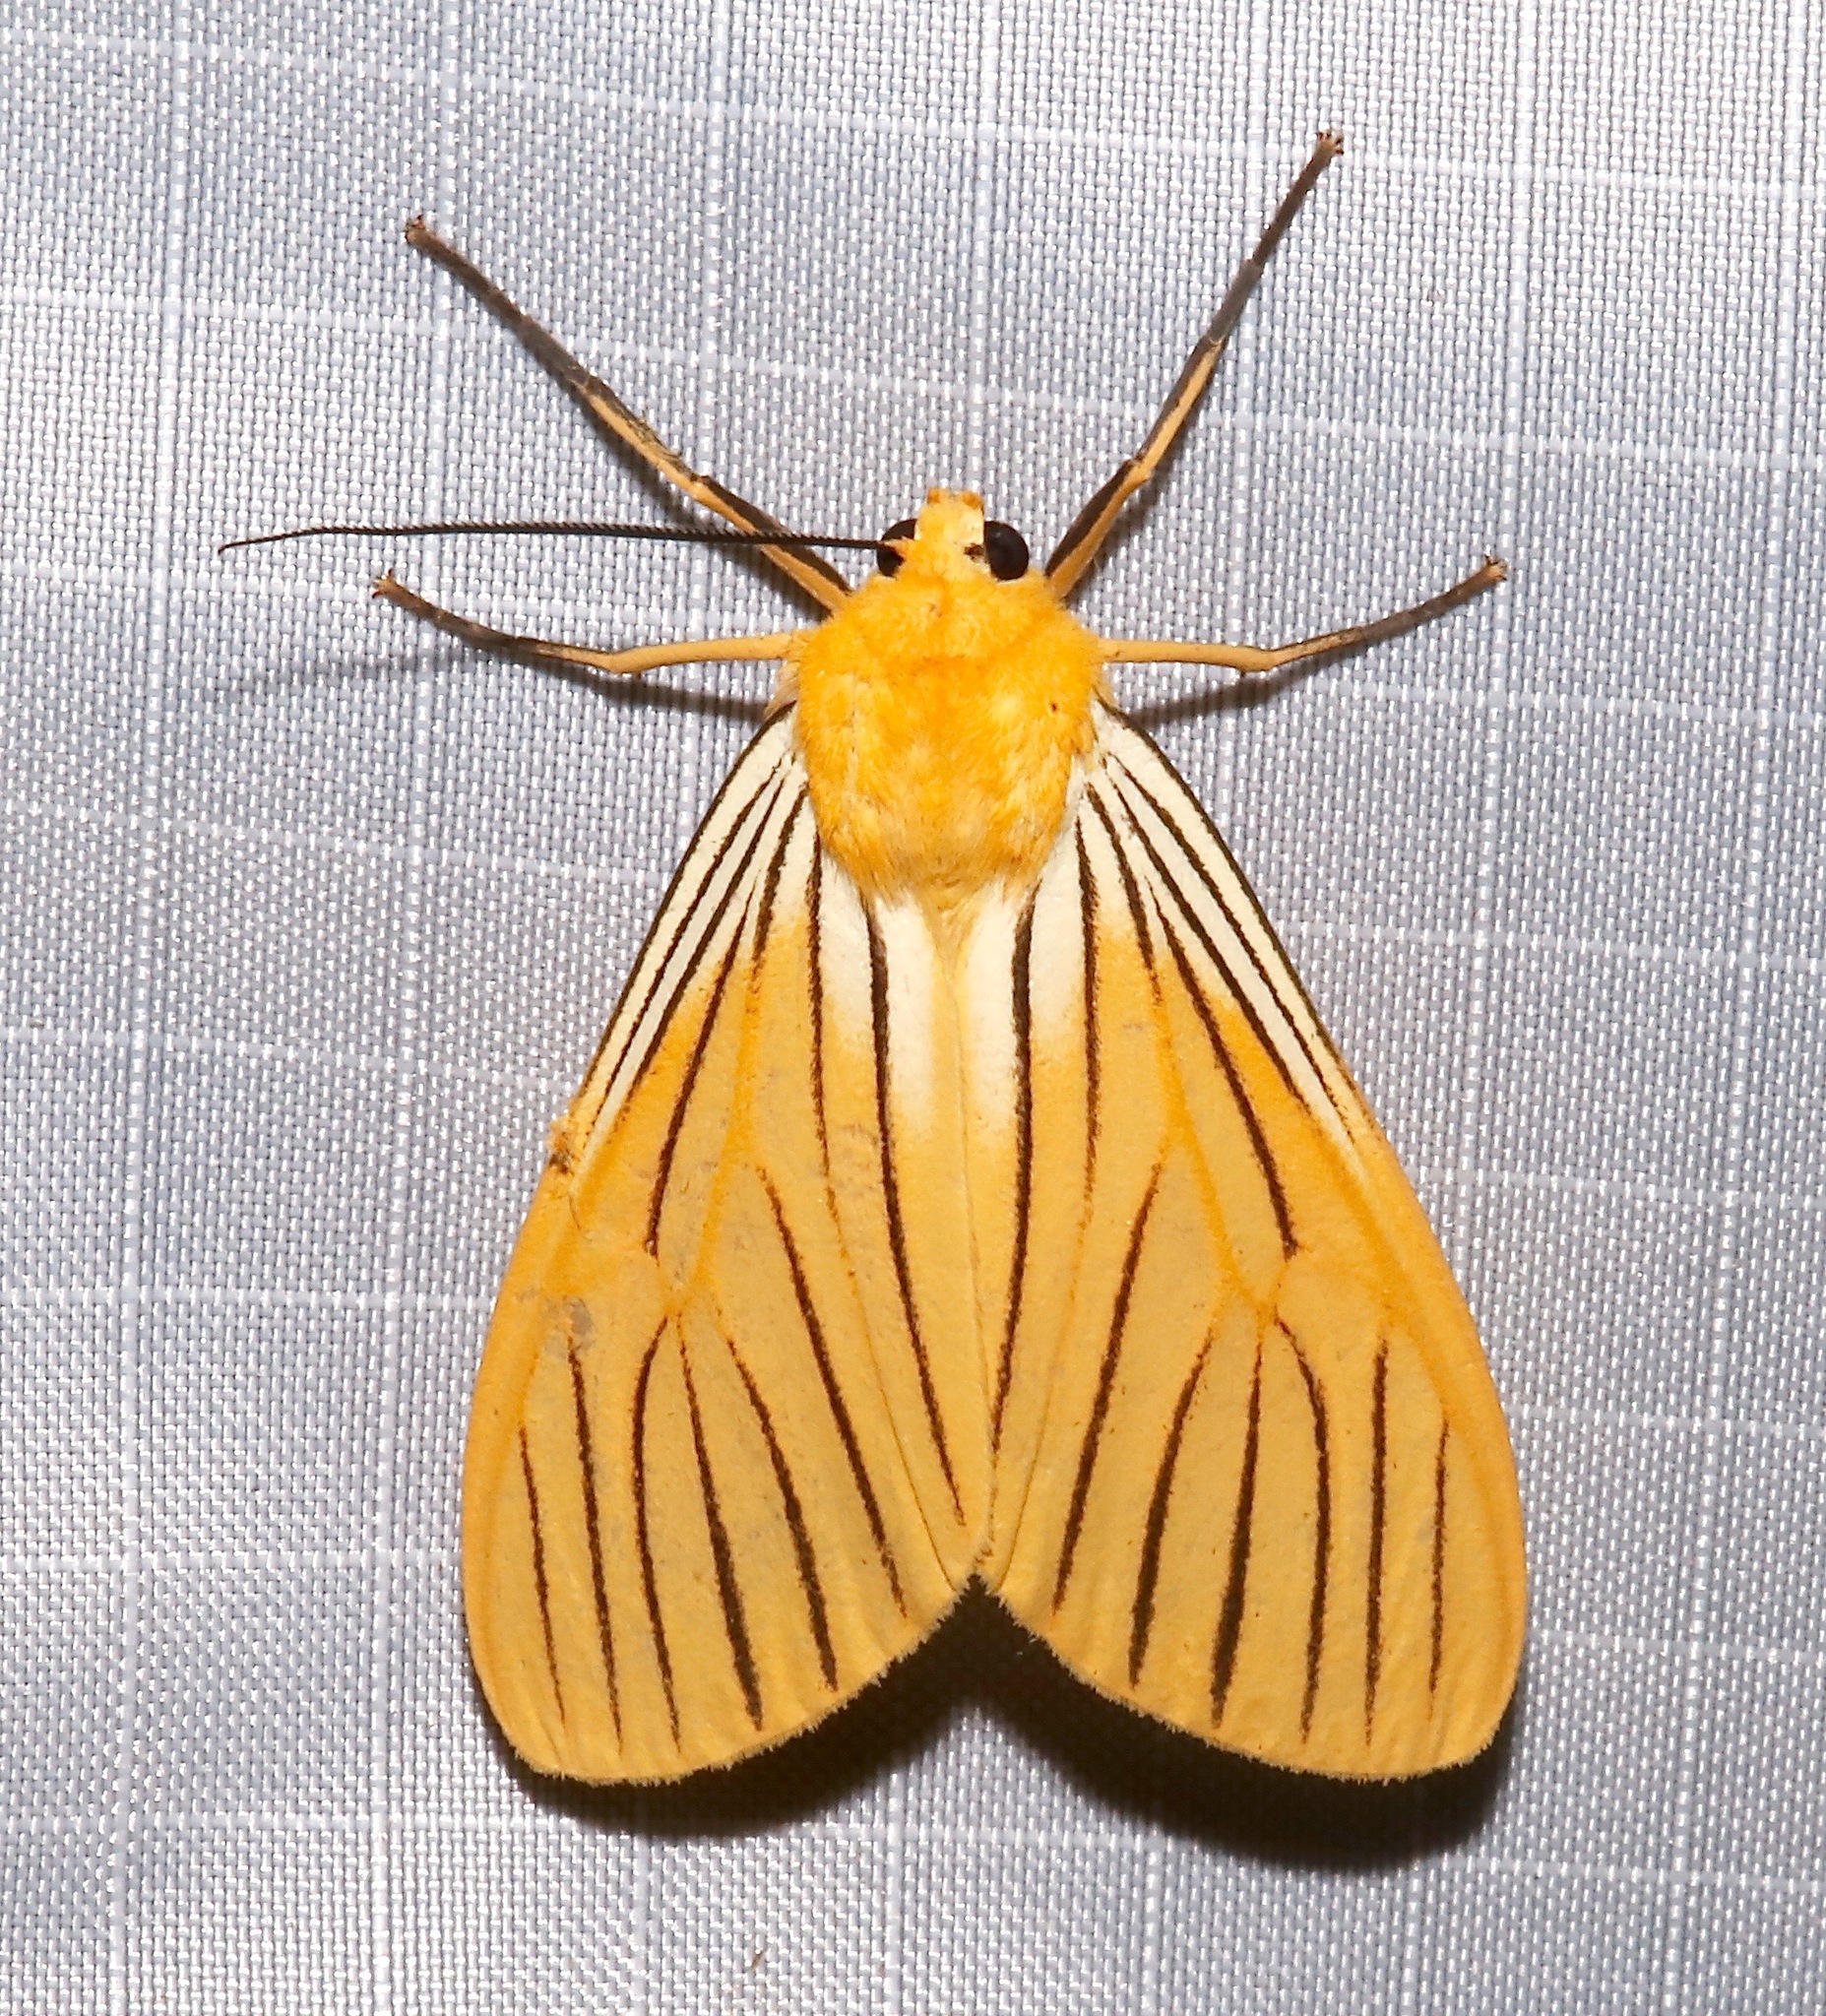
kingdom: Animalia
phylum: Arthropoda
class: Insecta
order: Lepidoptera
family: Erebidae
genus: Pseudischnocampa
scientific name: Pseudischnocampa
